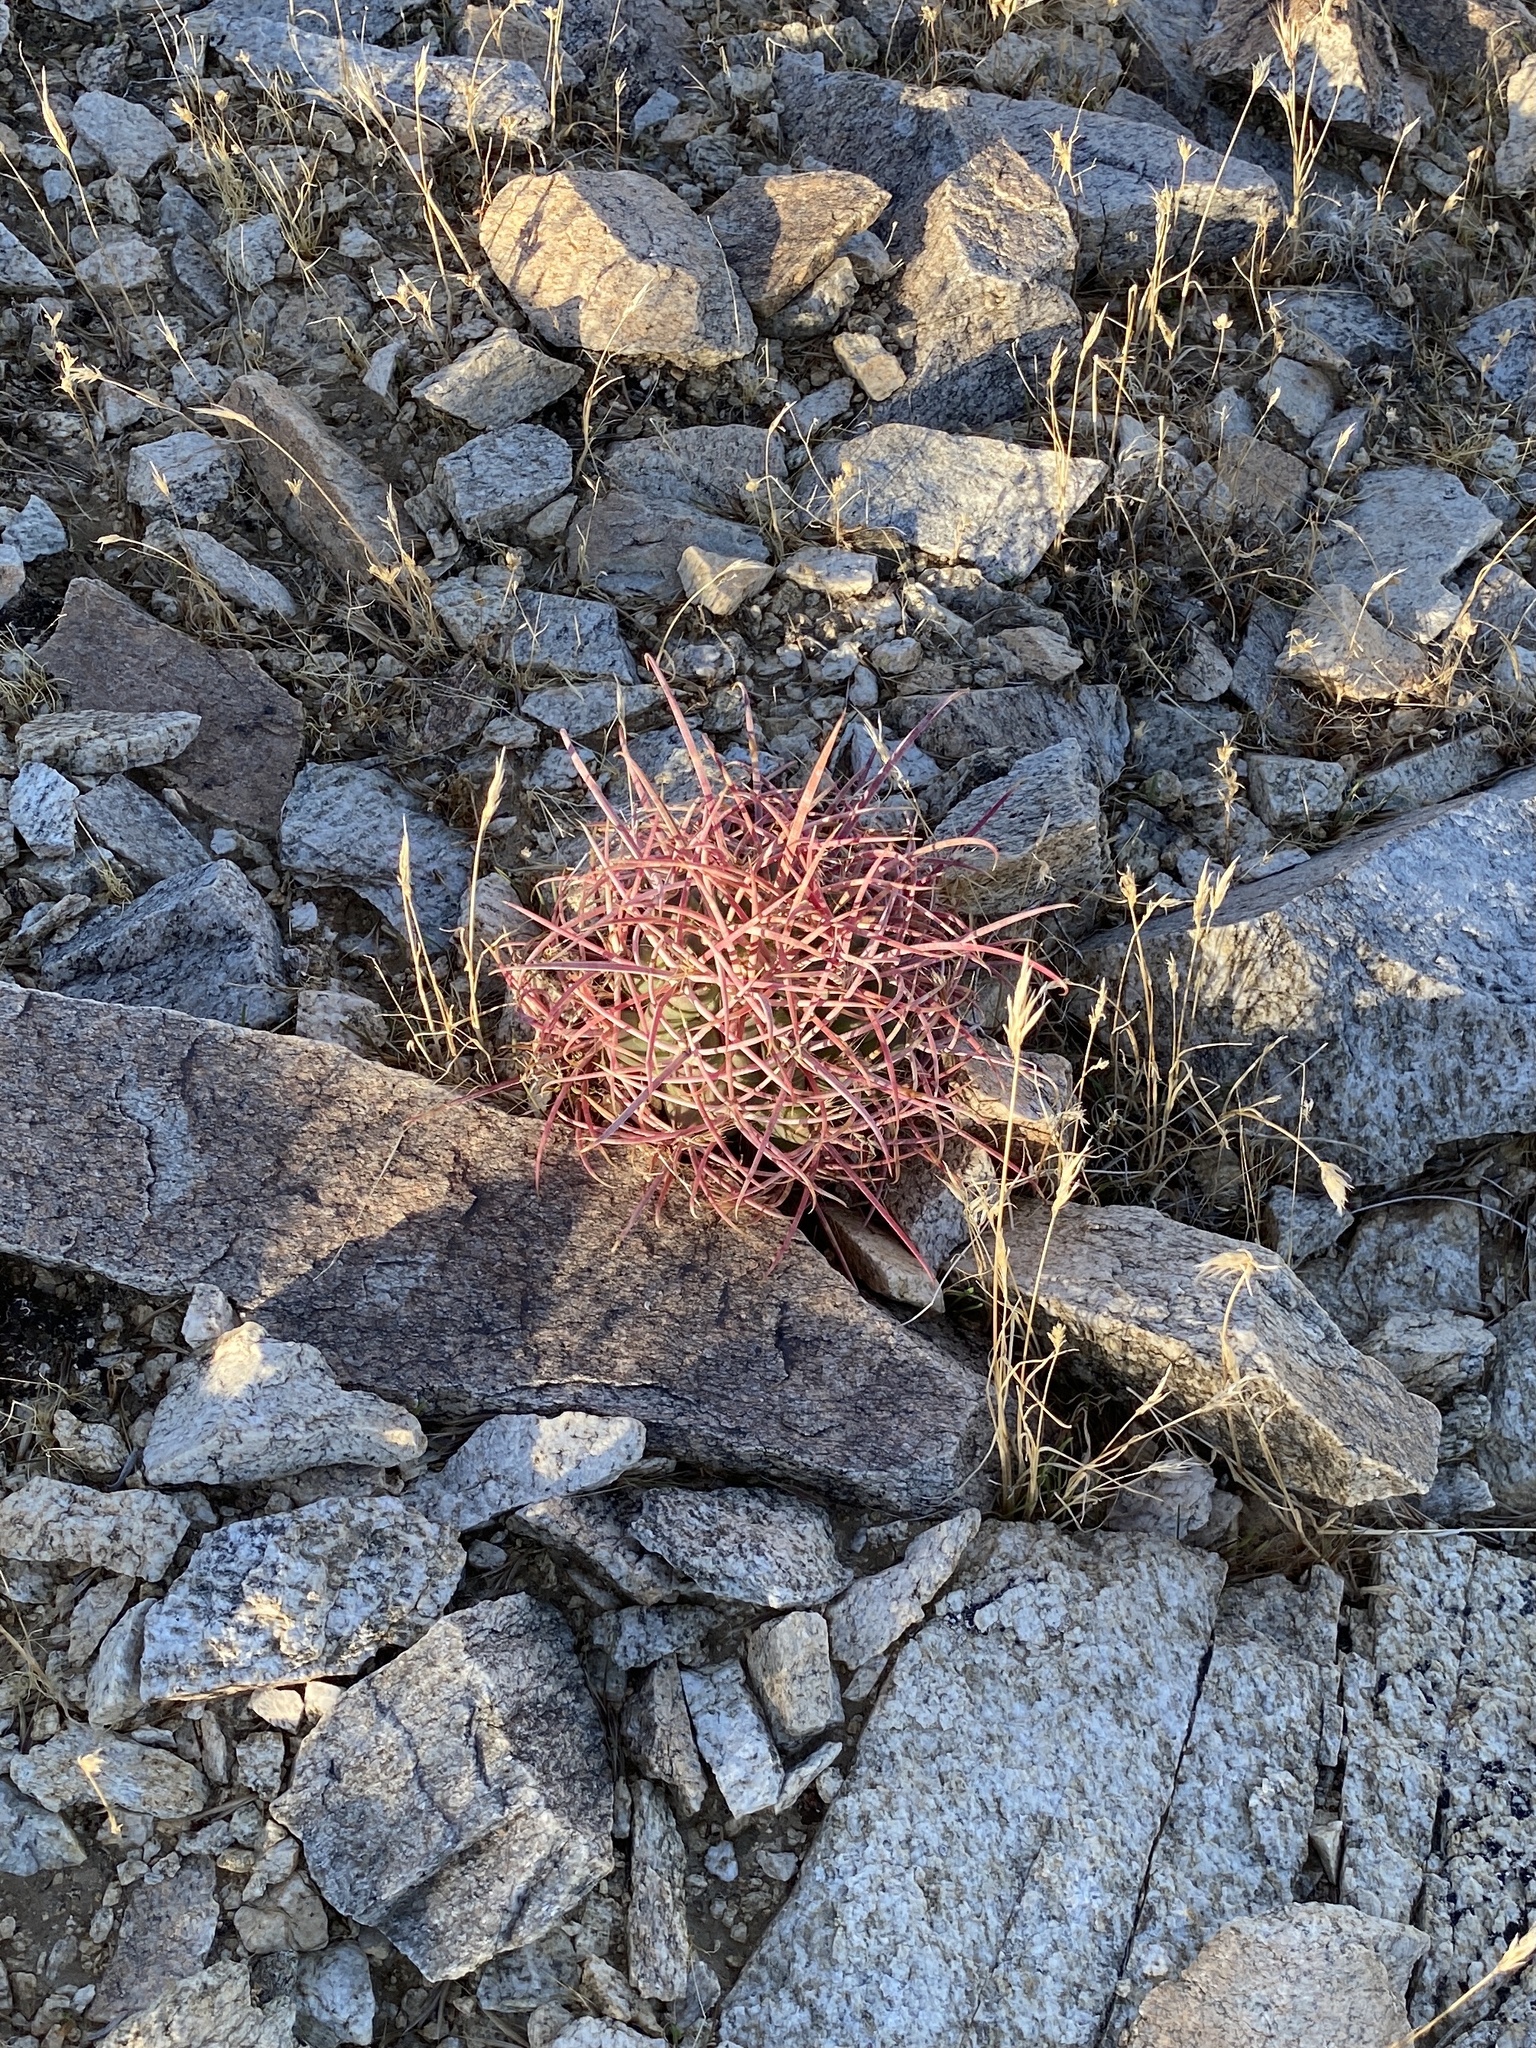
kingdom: Plantae
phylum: Tracheophyta
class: Magnoliopsida
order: Caryophyllales
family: Cactaceae
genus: Ferocactus
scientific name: Ferocactus cylindraceus
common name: California barrel cactus
